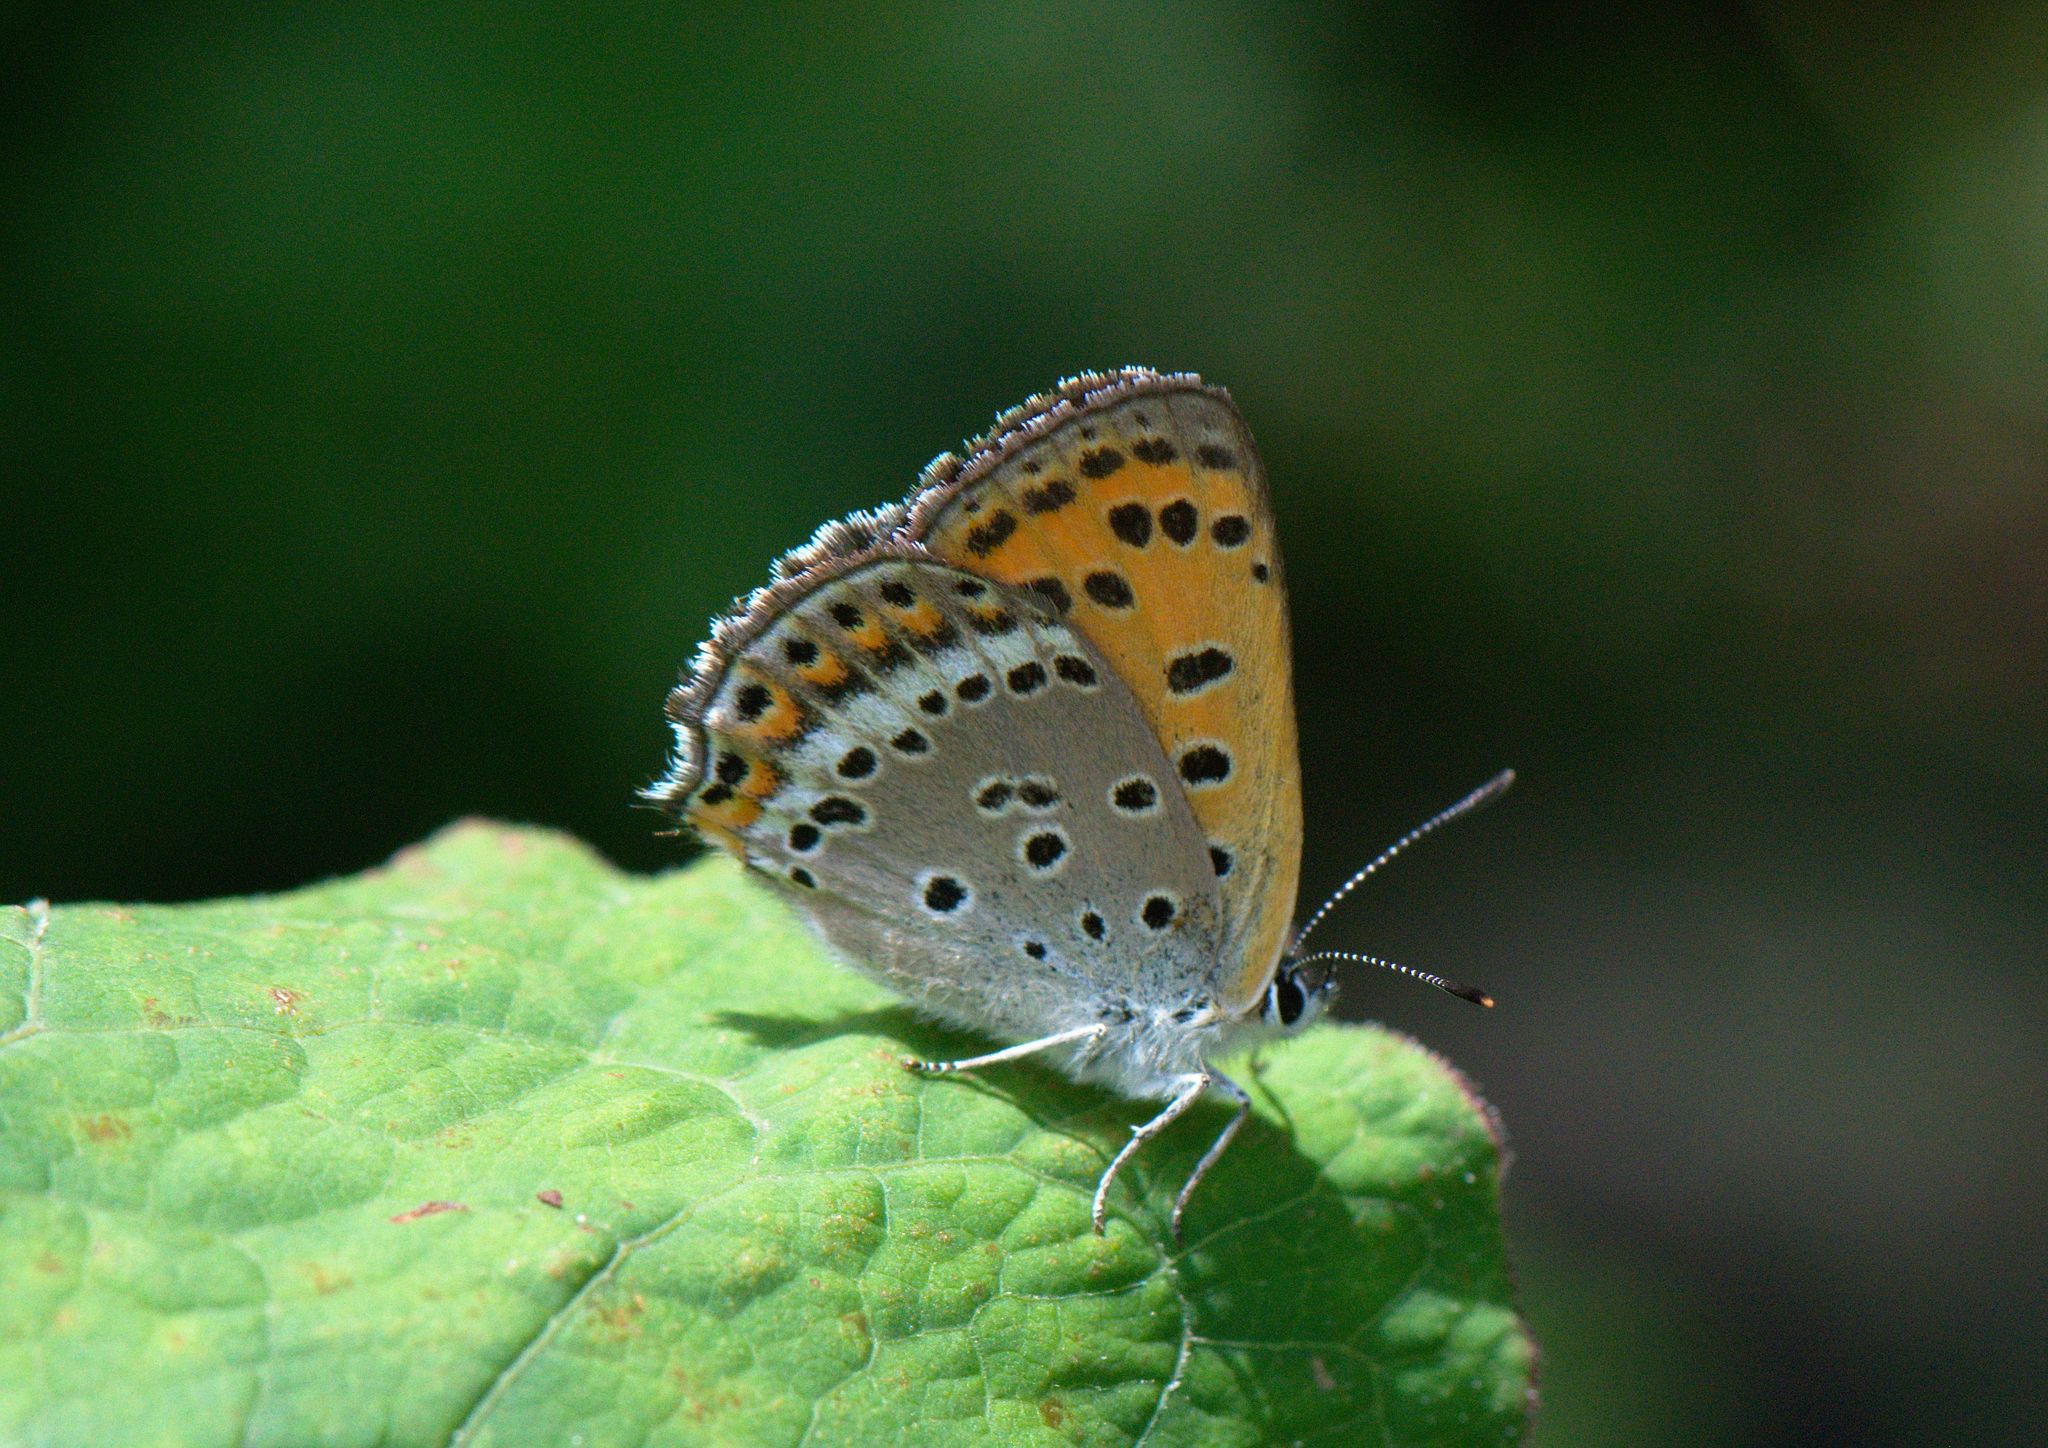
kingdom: Animalia
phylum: Arthropoda
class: Insecta
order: Lepidoptera
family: Lycaenidae
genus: Lycaena
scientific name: Lycaena panava
